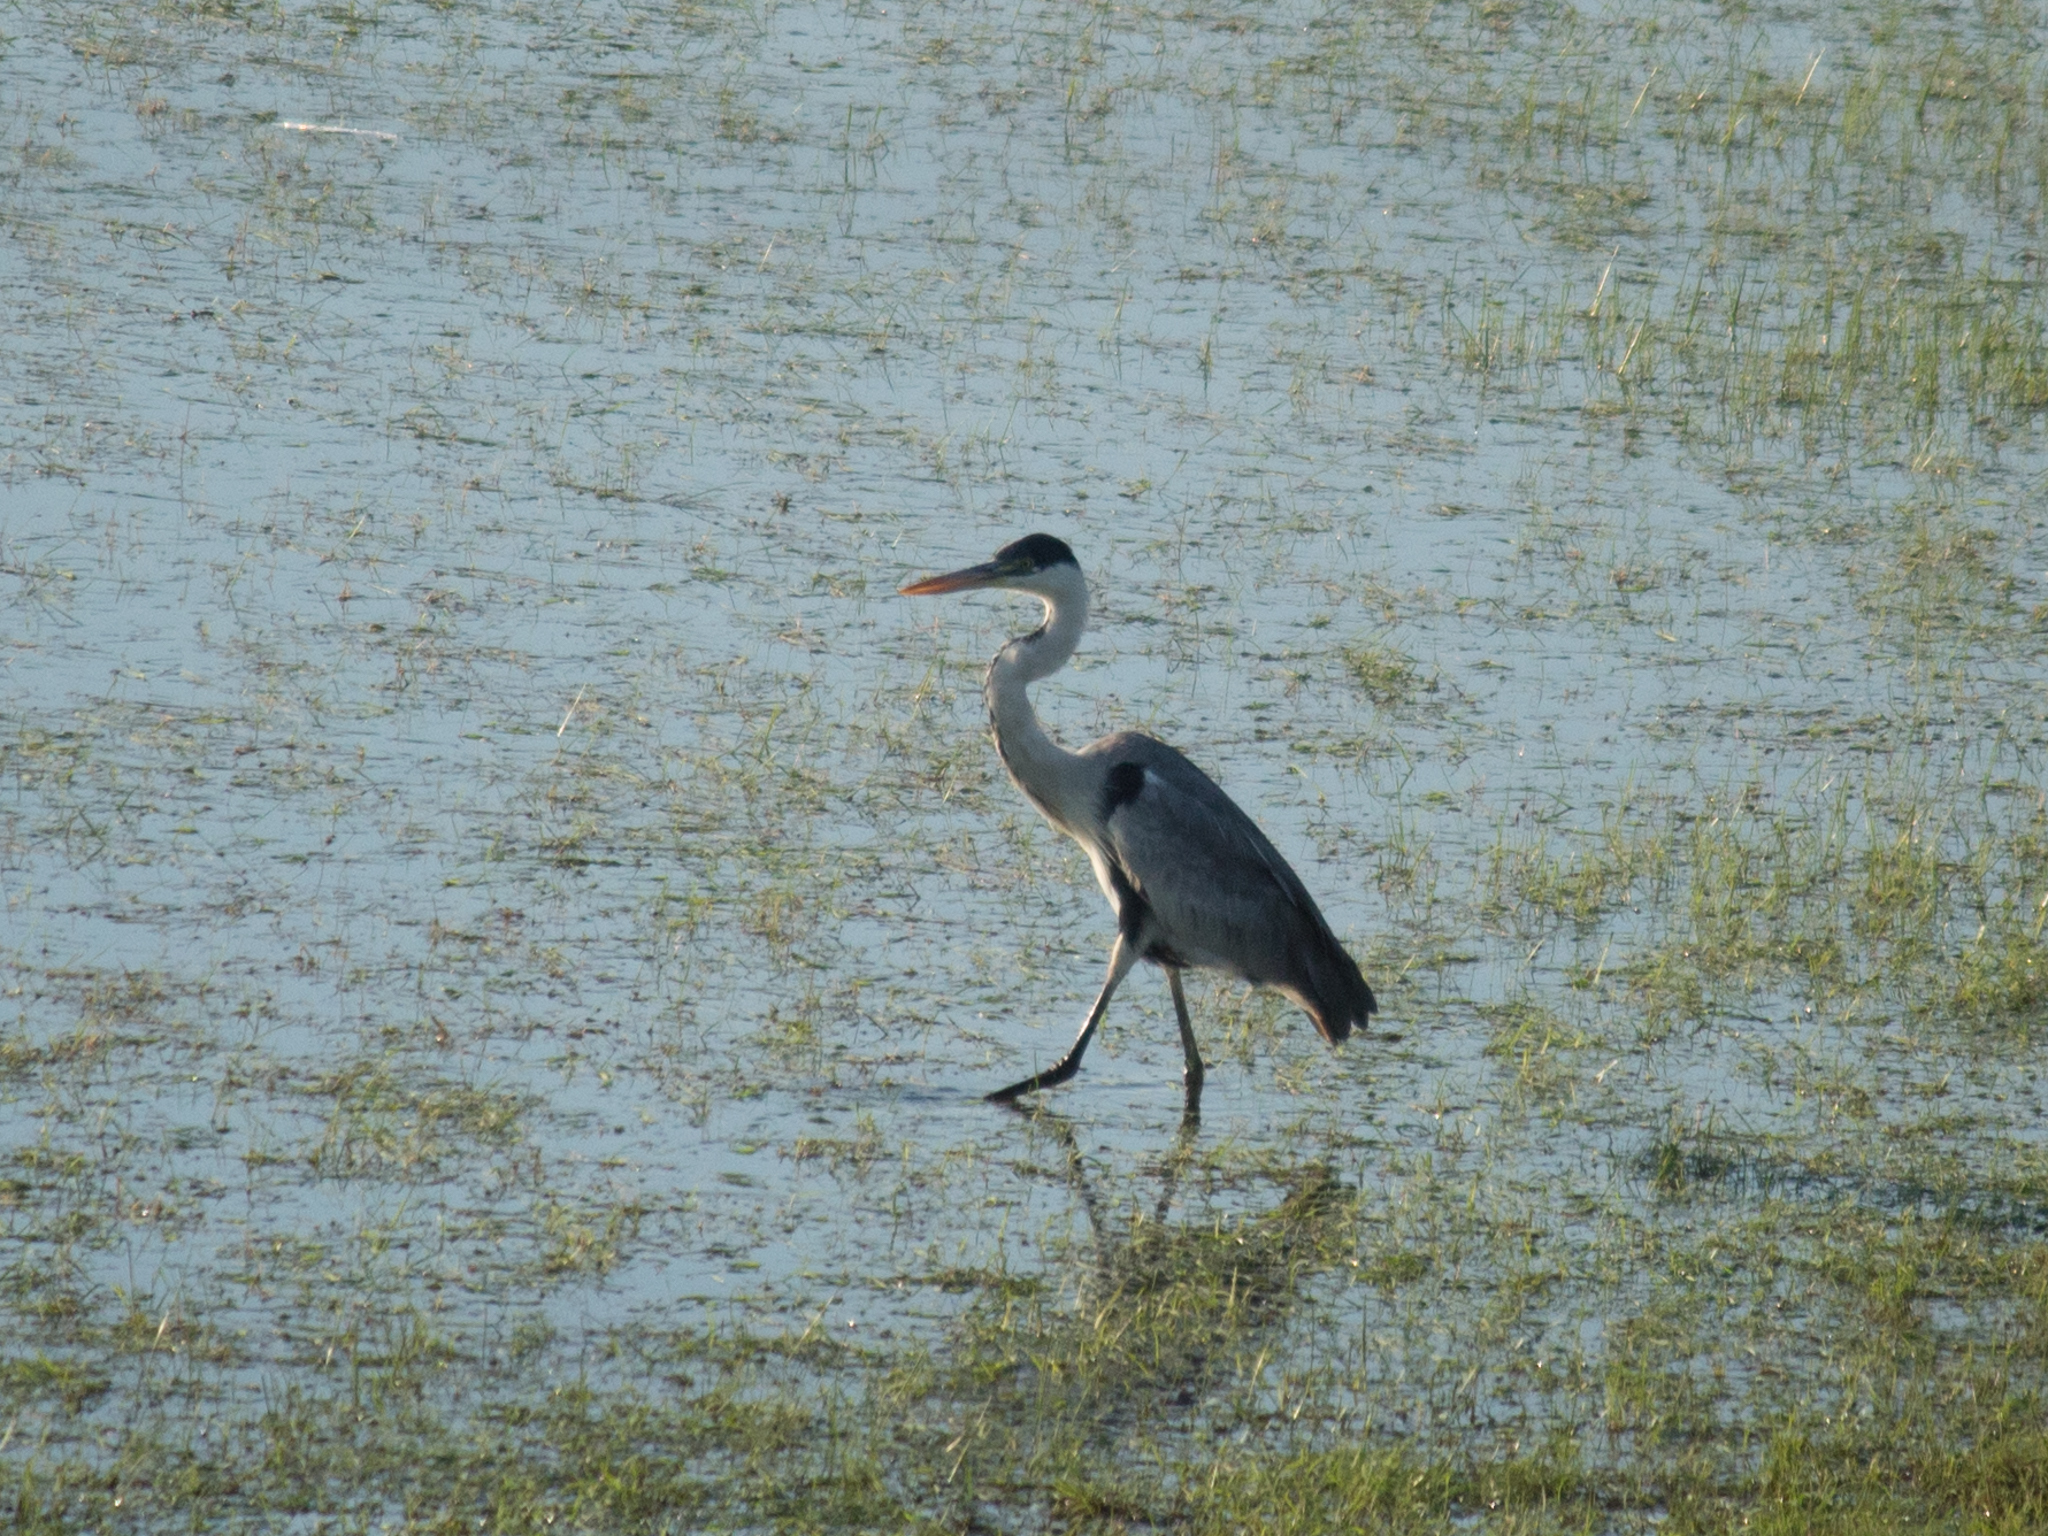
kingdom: Animalia
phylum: Chordata
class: Aves
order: Pelecaniformes
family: Ardeidae
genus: Ardea
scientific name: Ardea cocoi
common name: Cocoi heron
